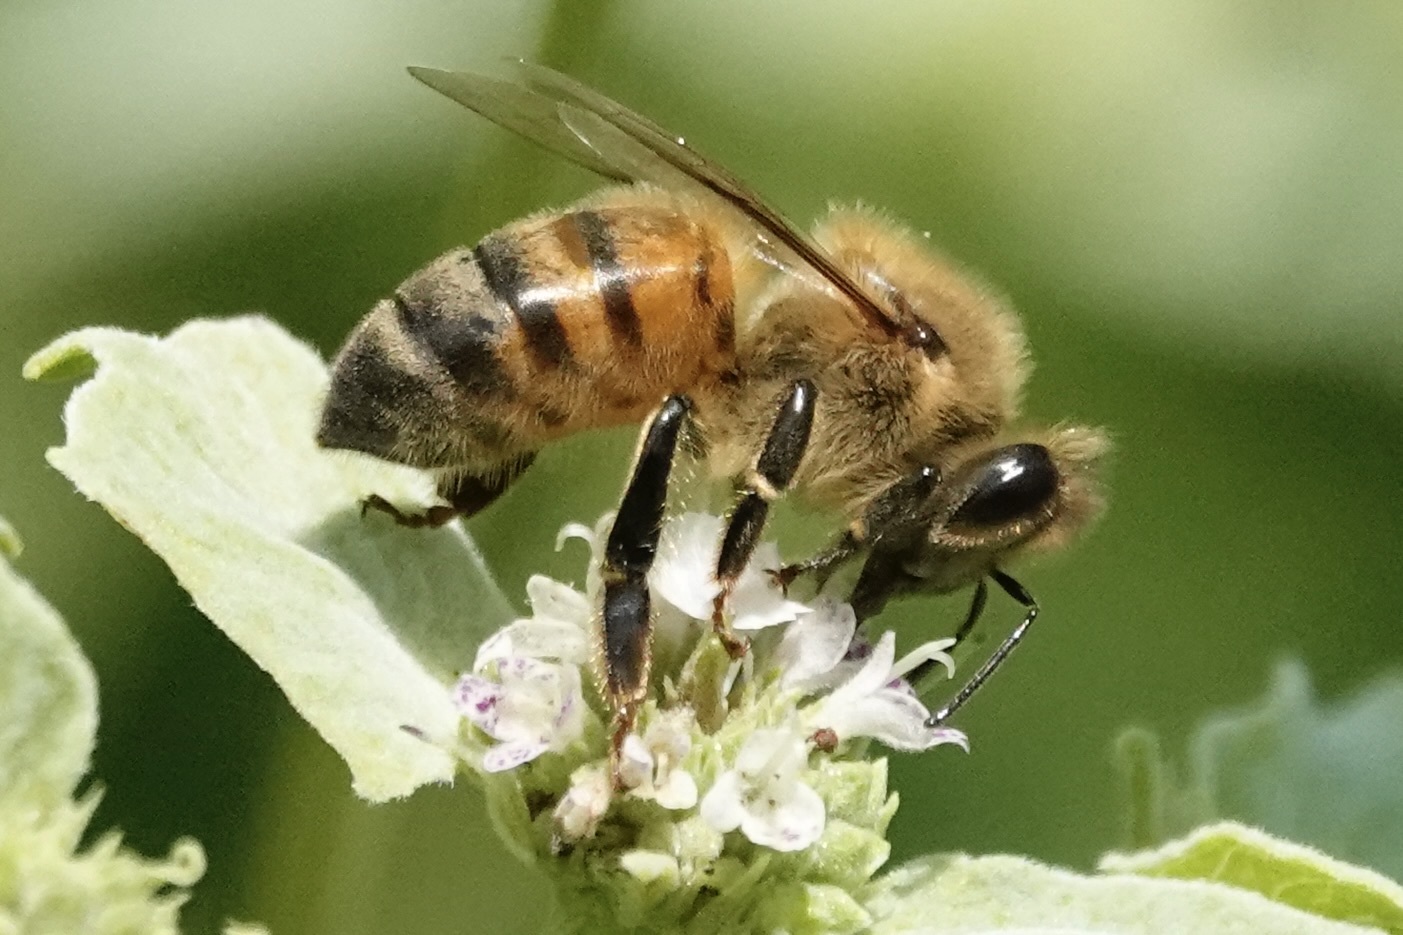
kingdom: Animalia
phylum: Arthropoda
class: Insecta
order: Hymenoptera
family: Apidae
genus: Apis
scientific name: Apis mellifera
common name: Honey bee
